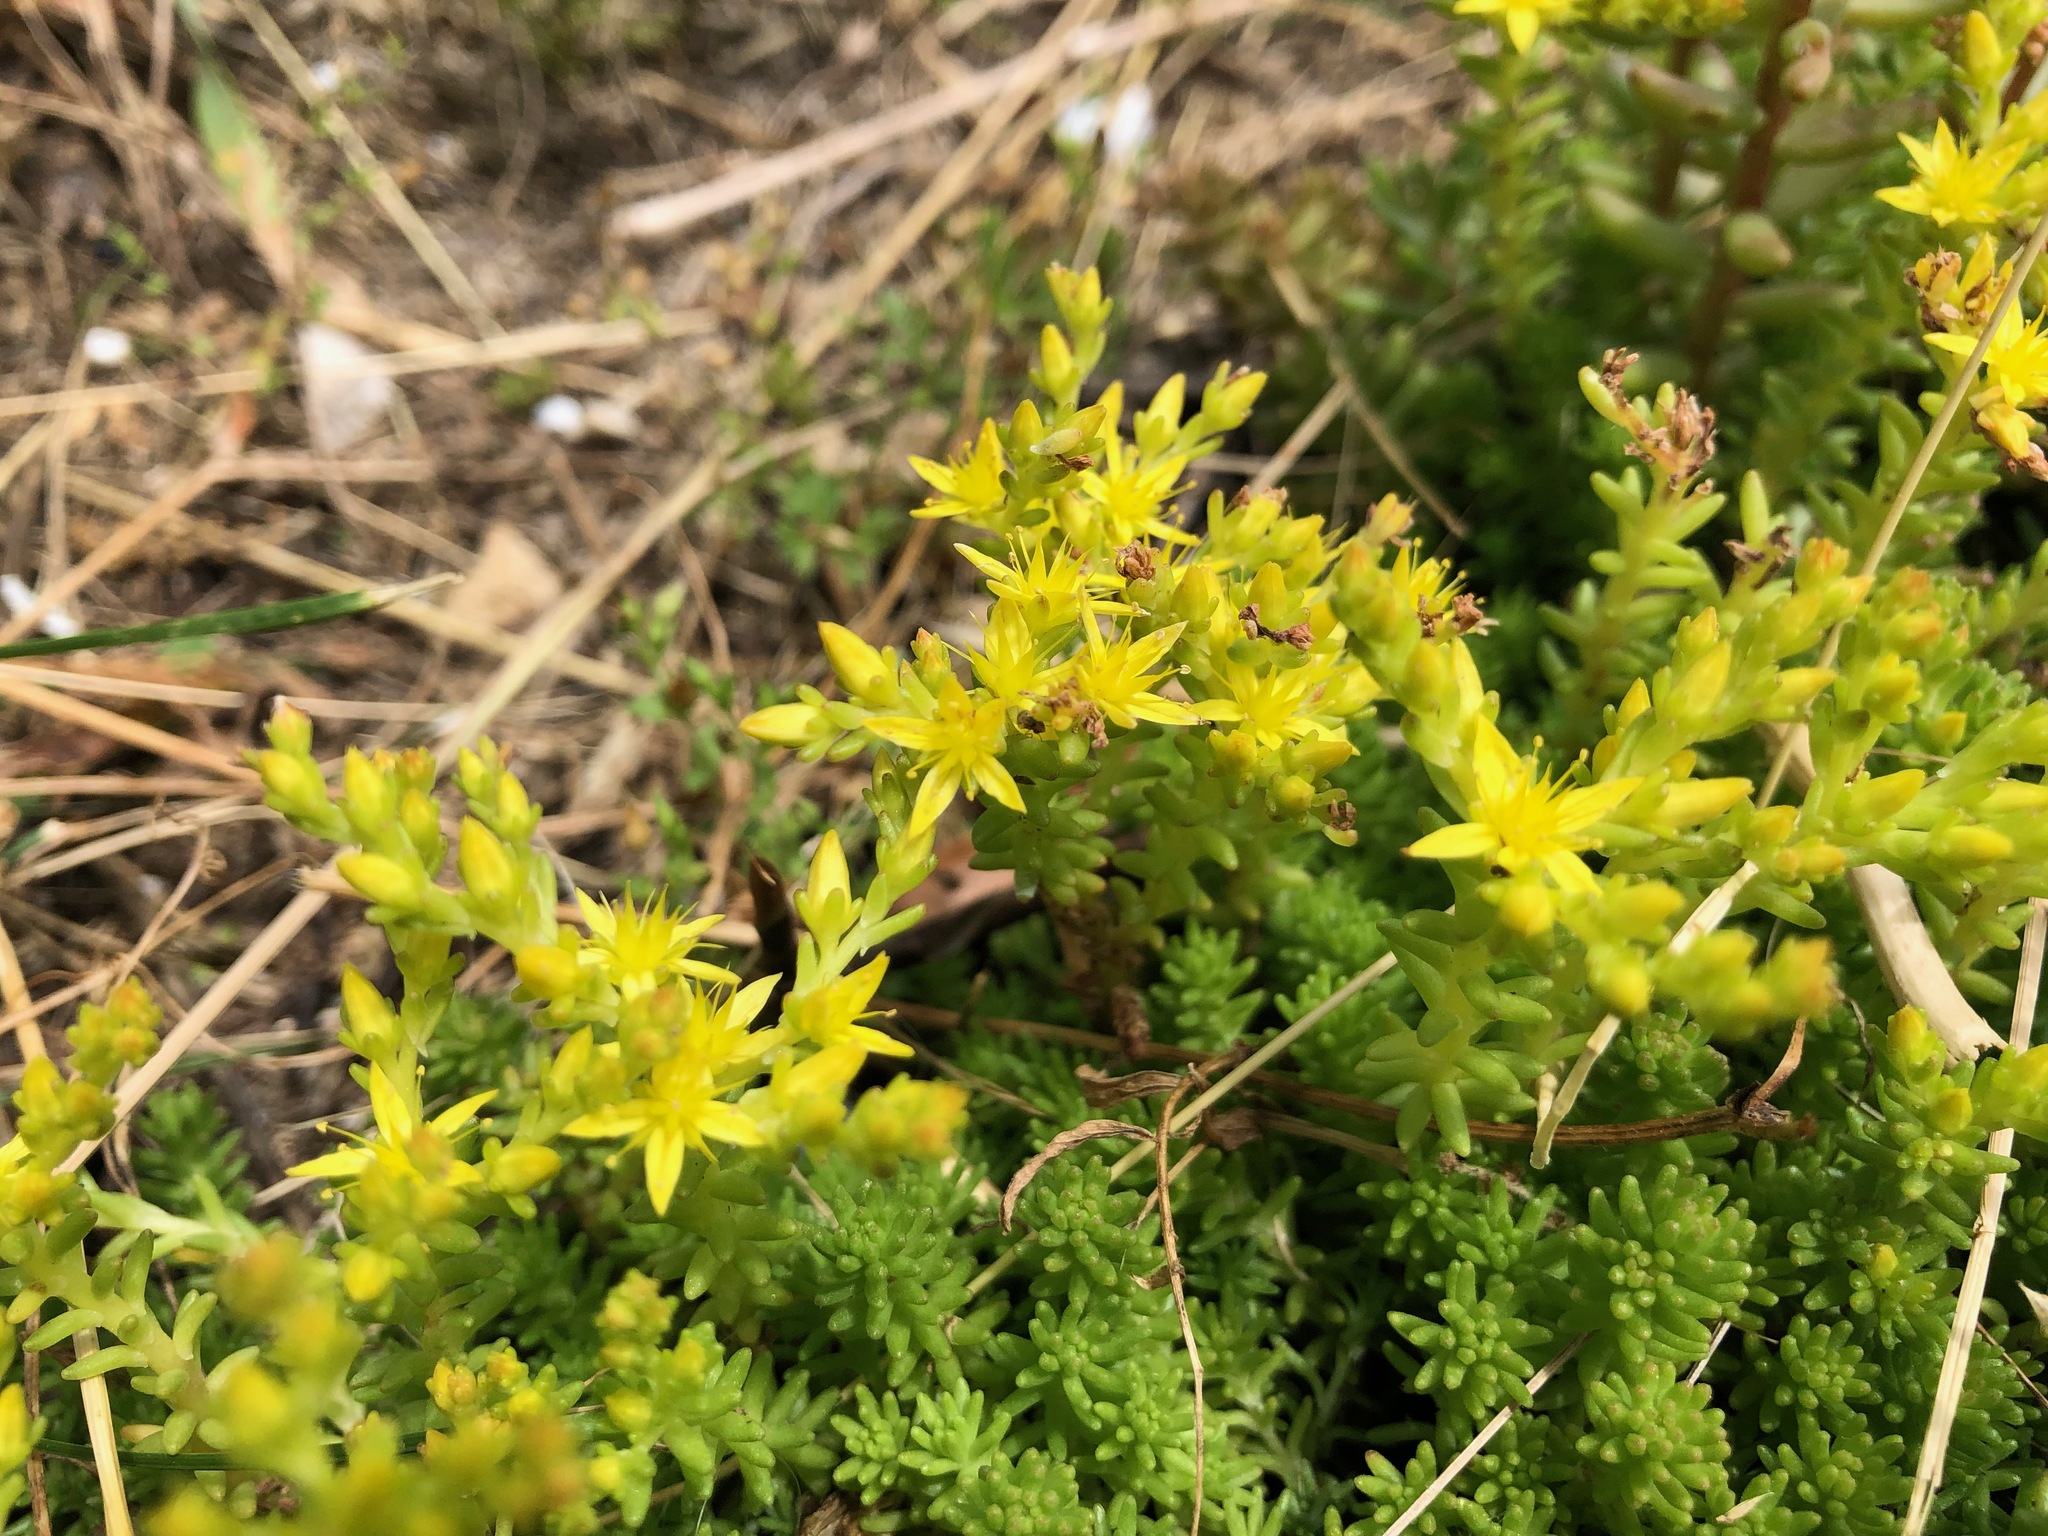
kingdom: Plantae
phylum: Tracheophyta
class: Magnoliopsida
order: Saxifragales
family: Crassulaceae
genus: Sedum
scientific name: Sedum sexangulare
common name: Tasteless stonecrop
